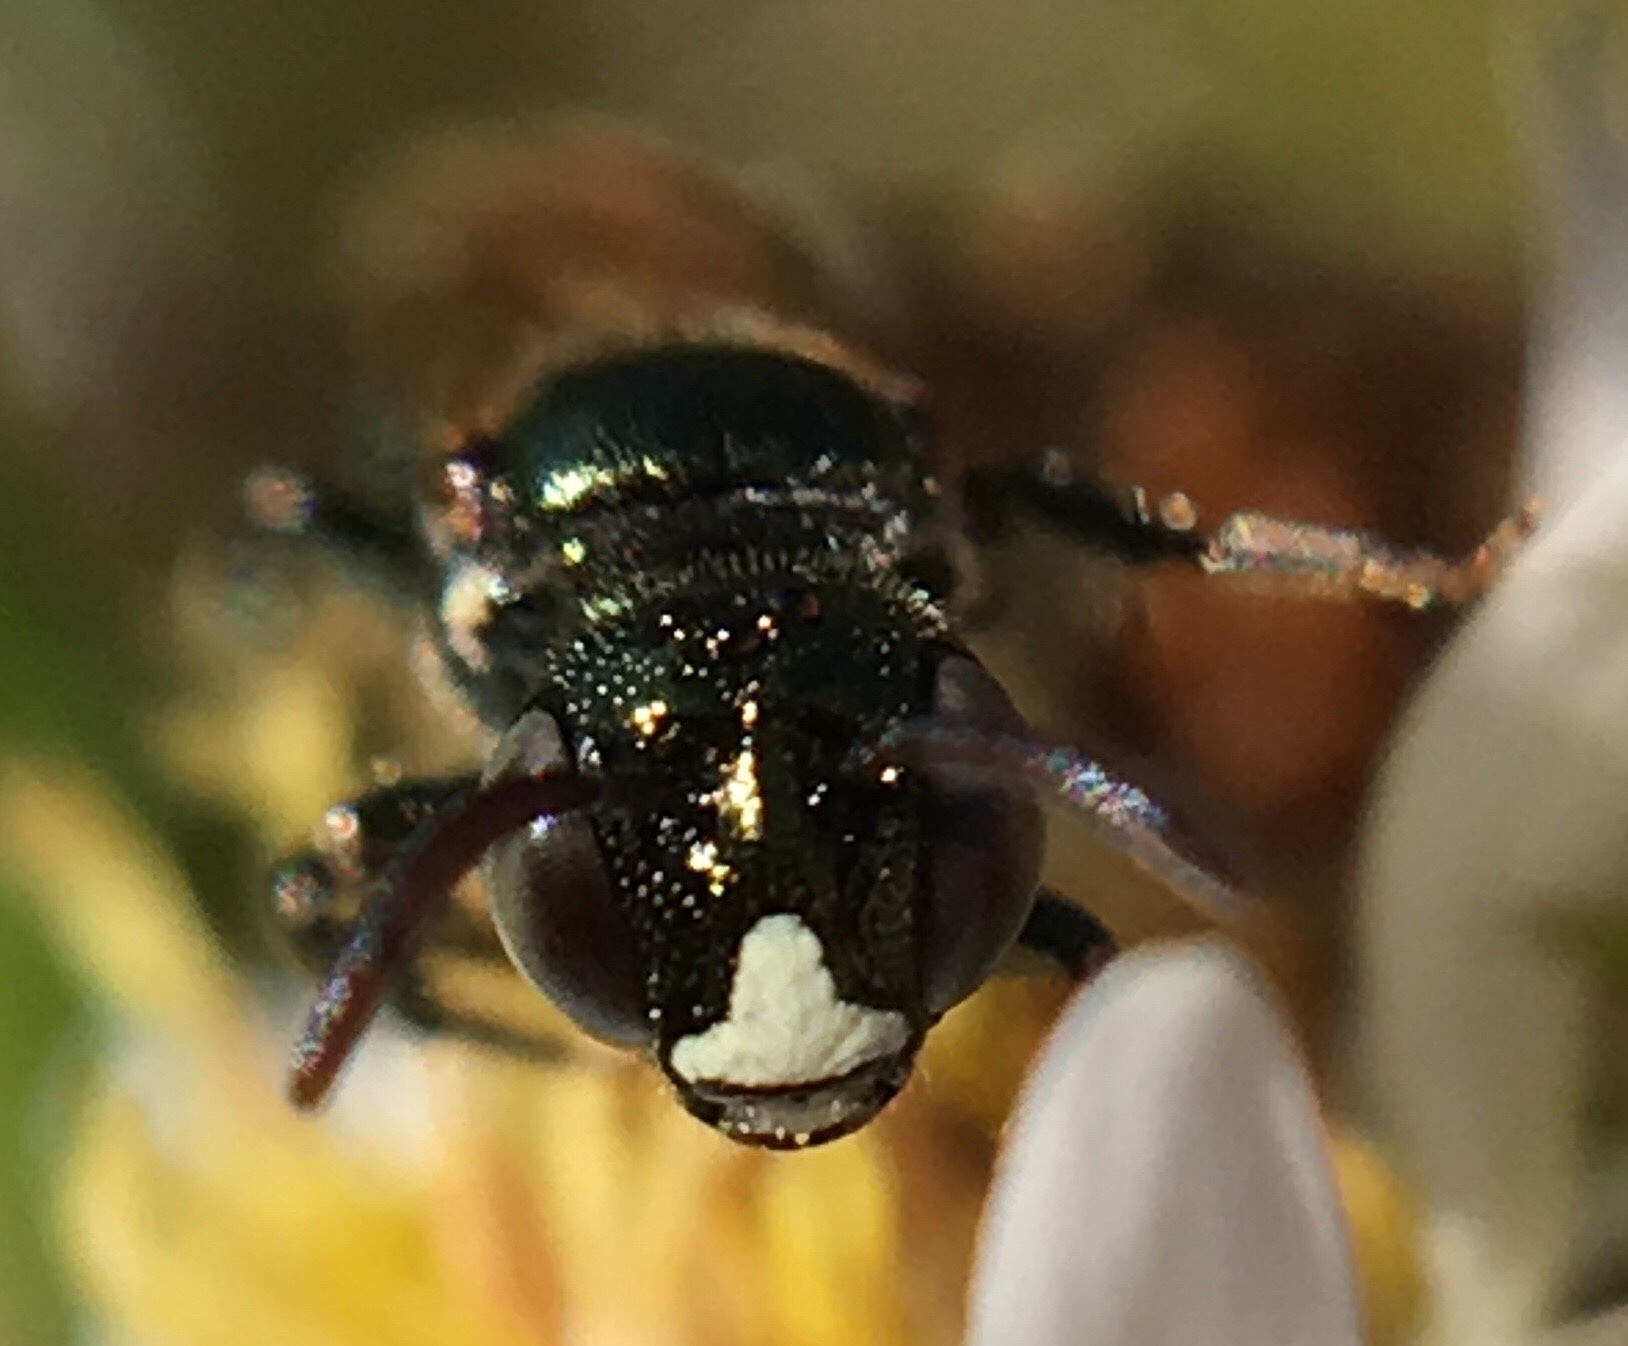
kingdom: Animalia
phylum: Arthropoda
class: Insecta
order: Hymenoptera
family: Apidae
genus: Ceratina
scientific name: Ceratina strenua
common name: Nimble carpenter bee
